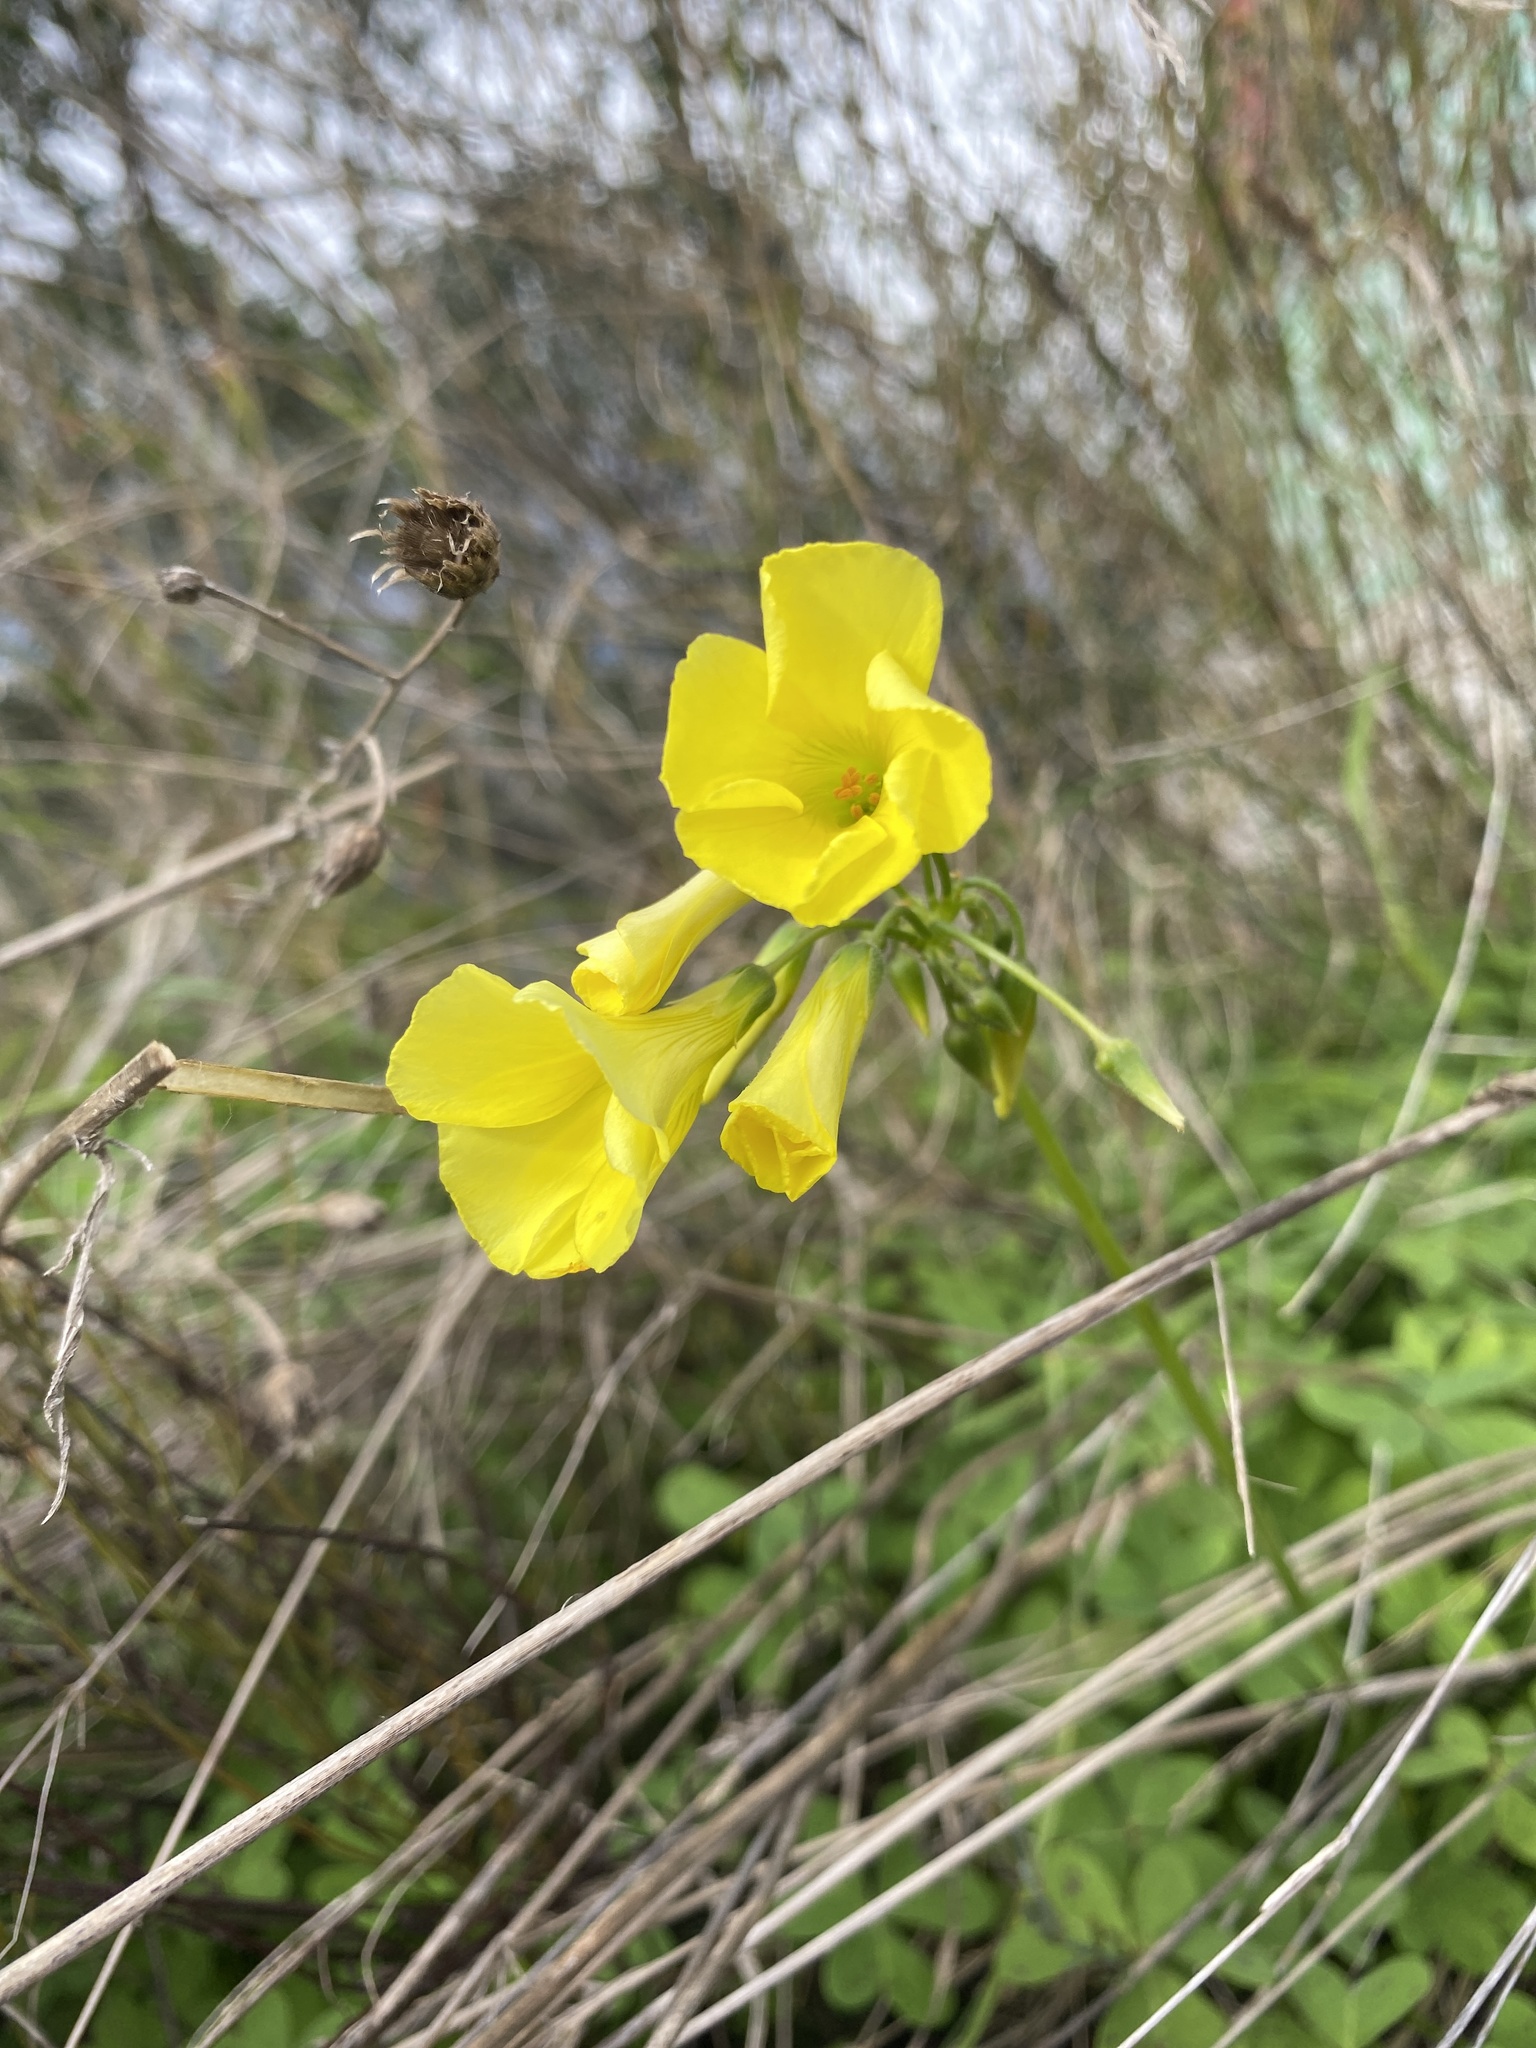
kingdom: Plantae
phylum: Tracheophyta
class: Magnoliopsida
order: Oxalidales
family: Oxalidaceae
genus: Oxalis
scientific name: Oxalis pes-caprae
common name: Bermuda-buttercup
